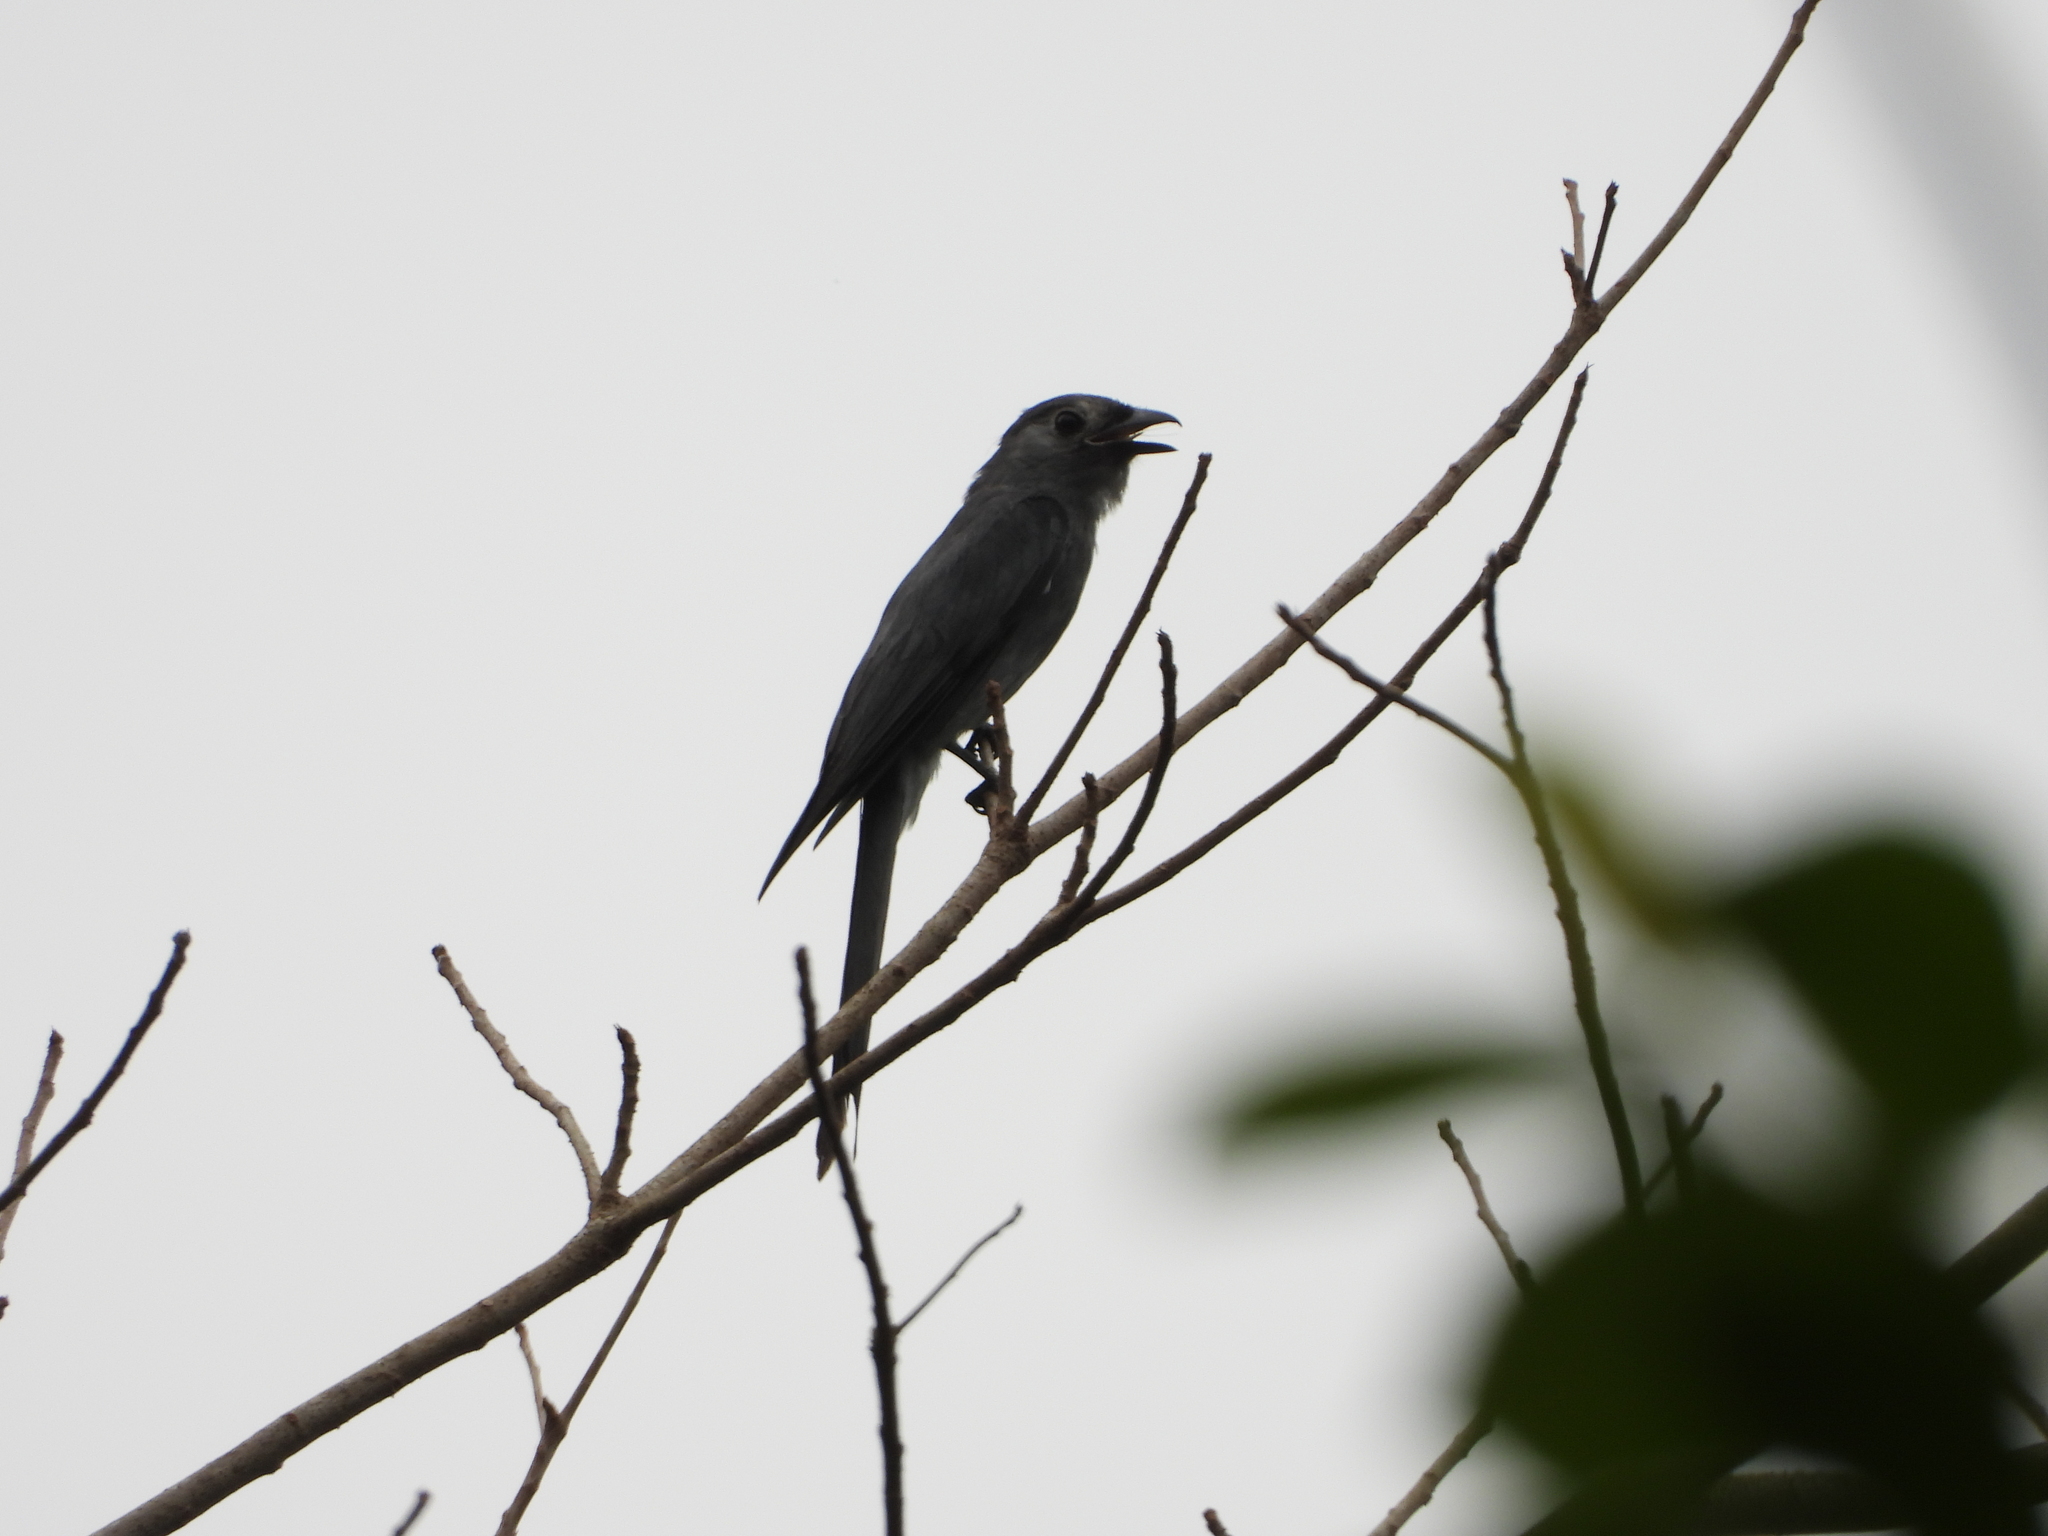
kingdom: Animalia
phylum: Chordata
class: Aves
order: Passeriformes
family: Dicruridae
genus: Dicrurus
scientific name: Dicrurus leucophaeus
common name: Ashy drongo
